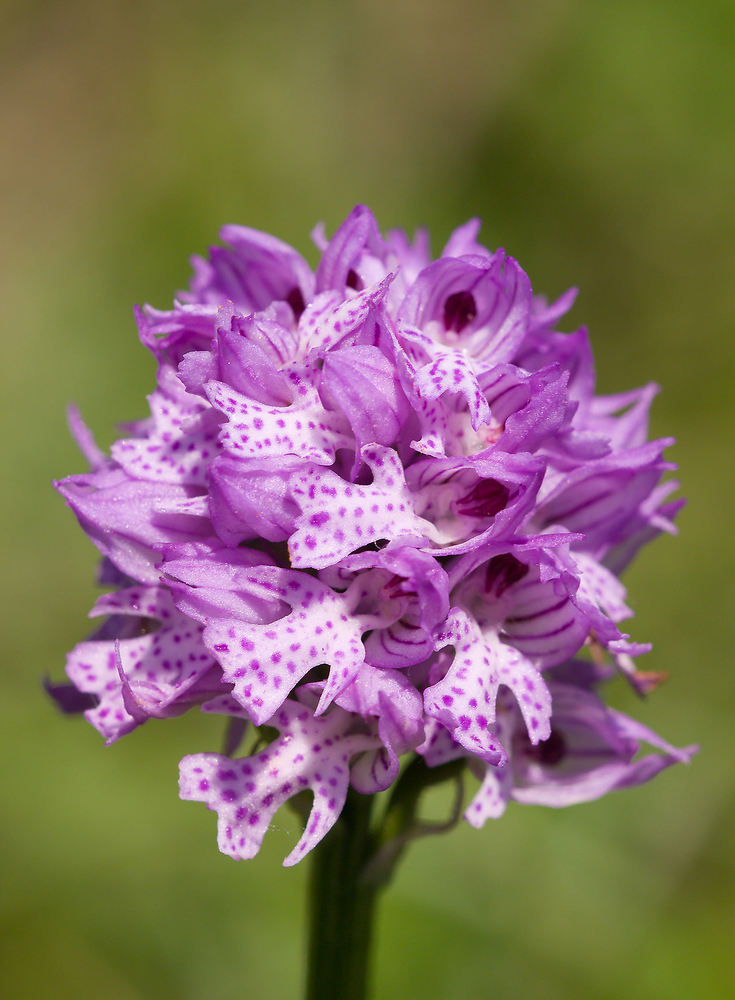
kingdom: Plantae
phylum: Tracheophyta
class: Liliopsida
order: Asparagales
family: Orchidaceae
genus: Neotinea
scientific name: Neotinea tridentata
